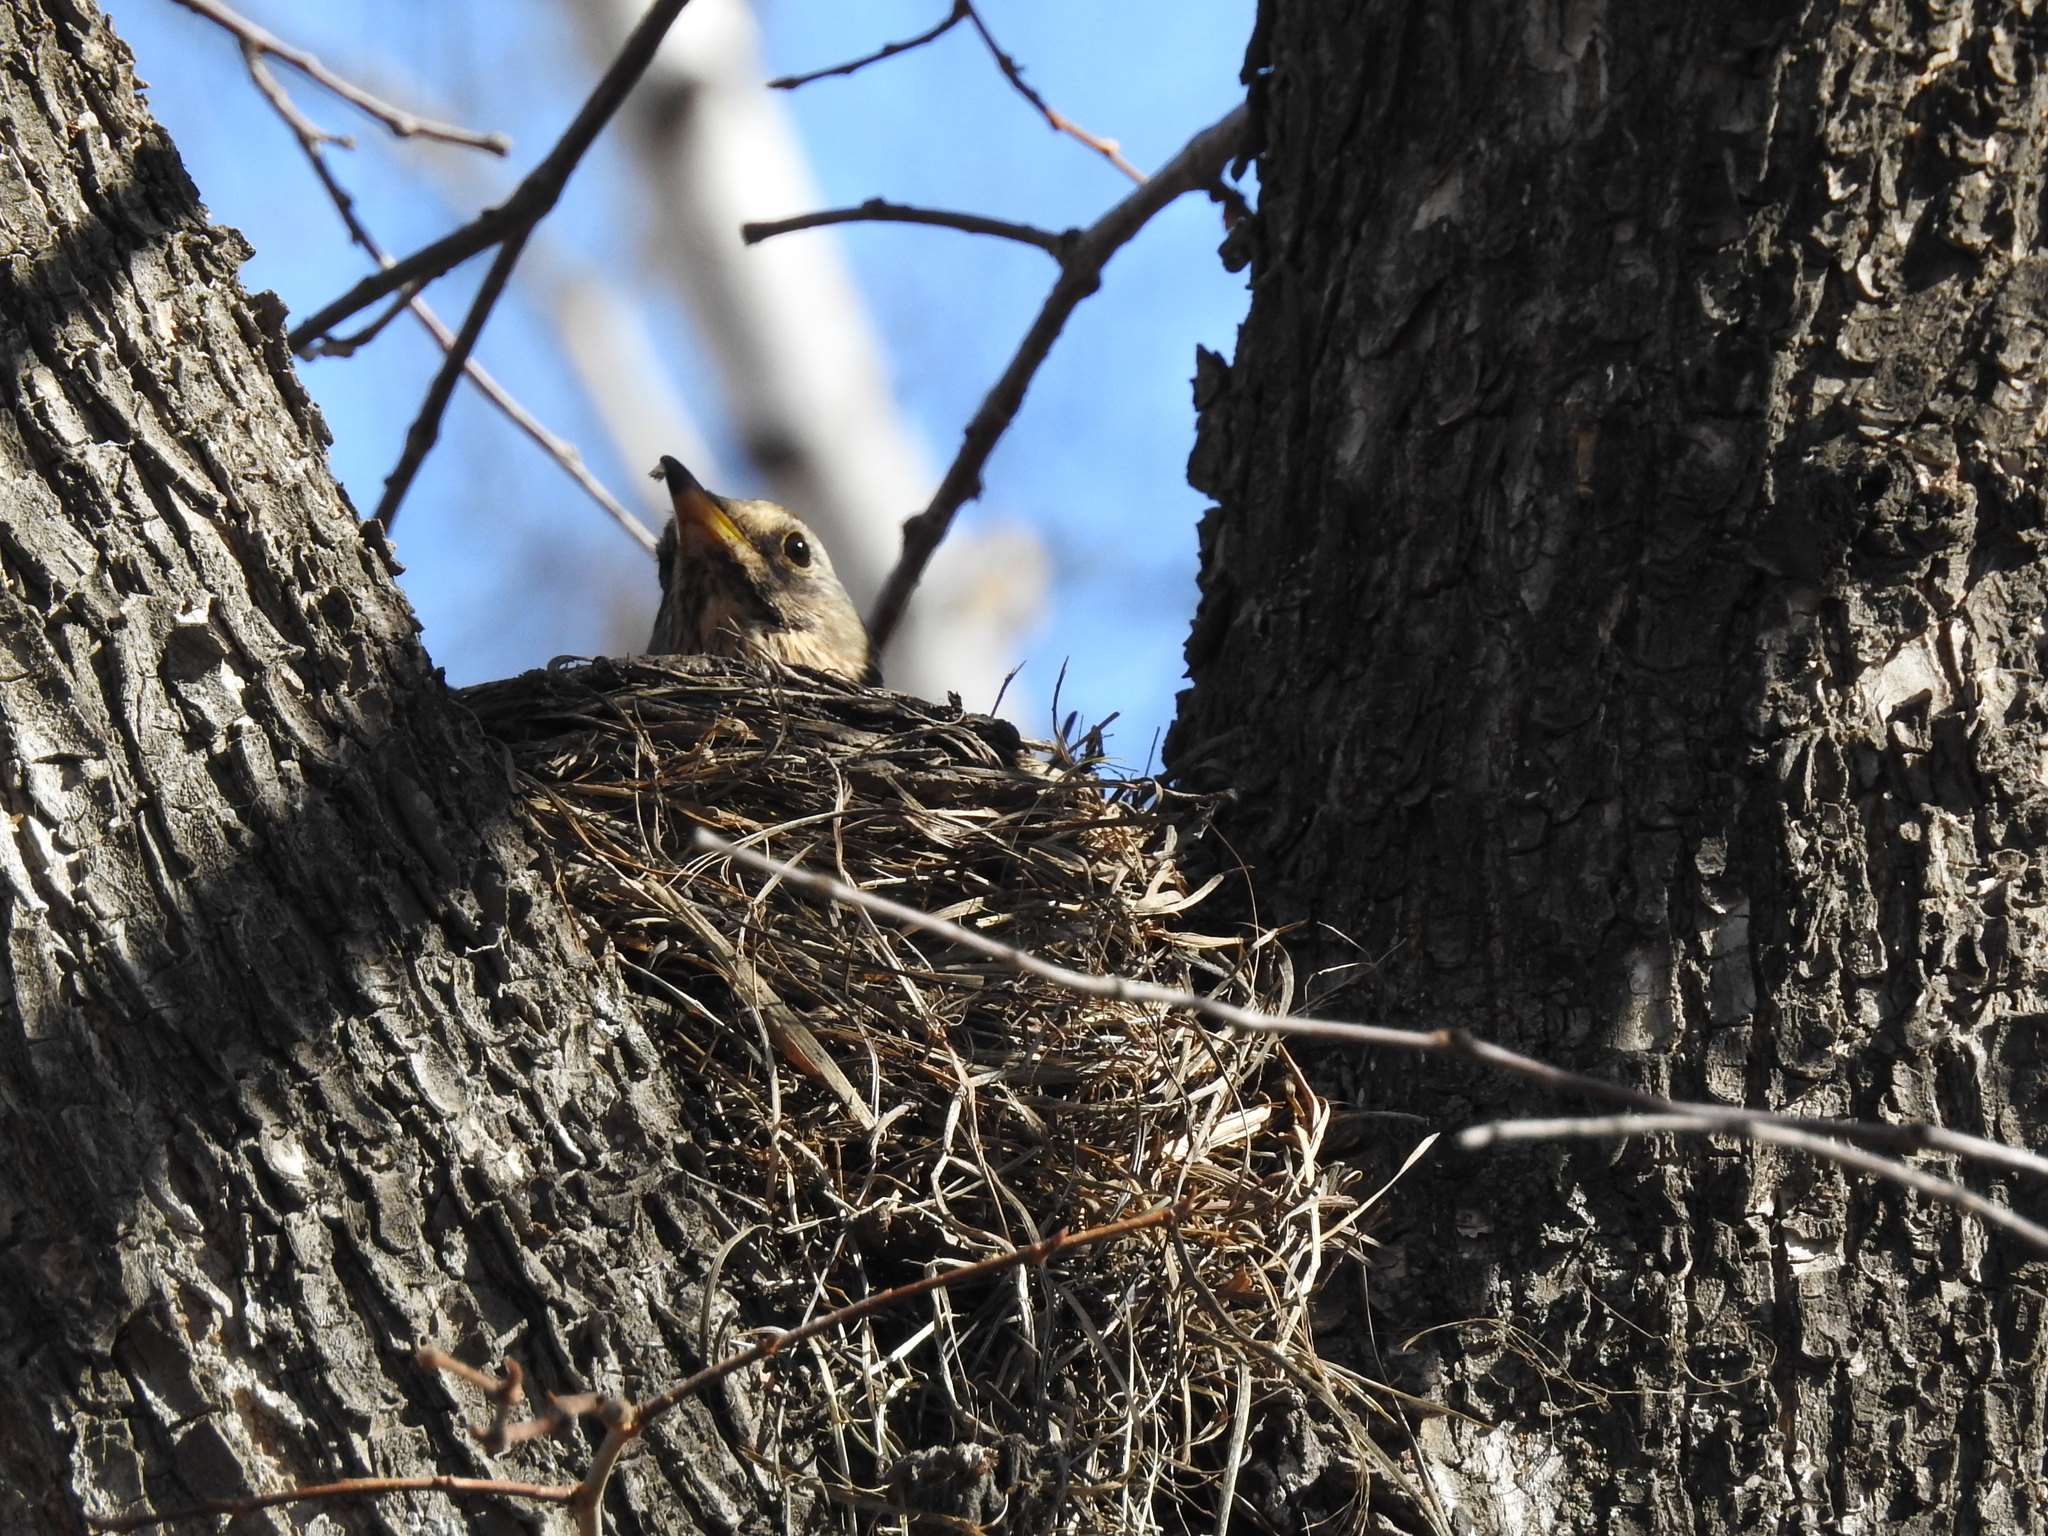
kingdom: Animalia
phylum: Chordata
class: Aves
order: Passeriformes
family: Turdidae
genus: Turdus
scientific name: Turdus pilaris
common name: Fieldfare
